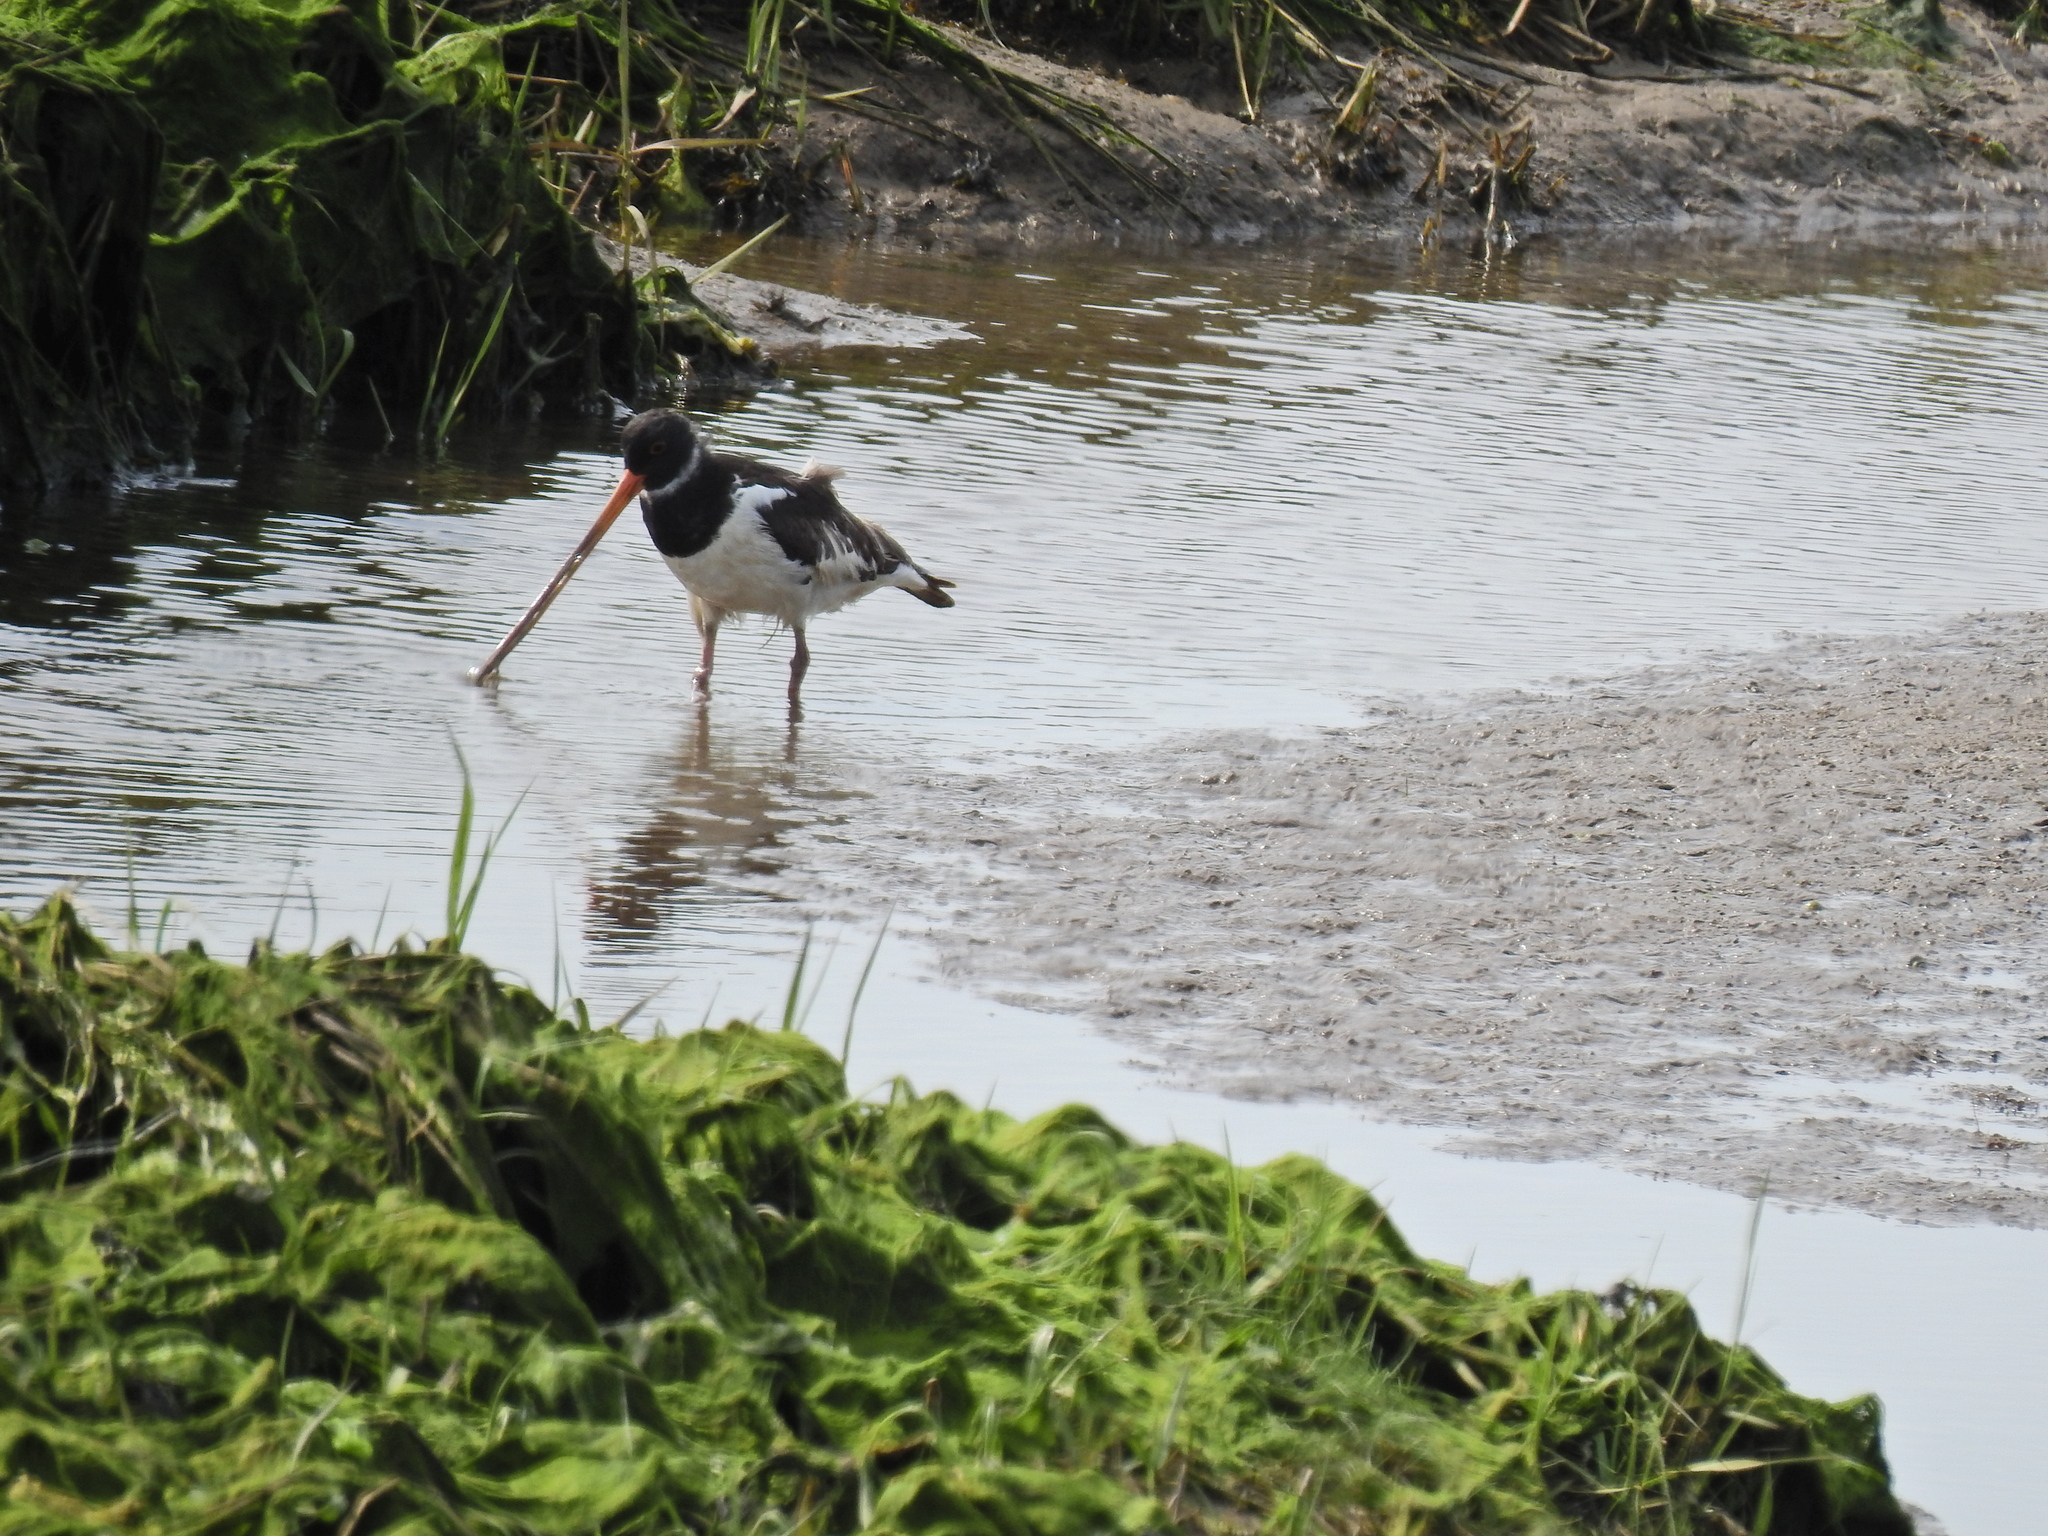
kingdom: Animalia
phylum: Chordata
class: Aves
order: Charadriiformes
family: Haematopodidae
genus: Haematopus
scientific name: Haematopus ostralegus
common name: Eurasian oystercatcher
